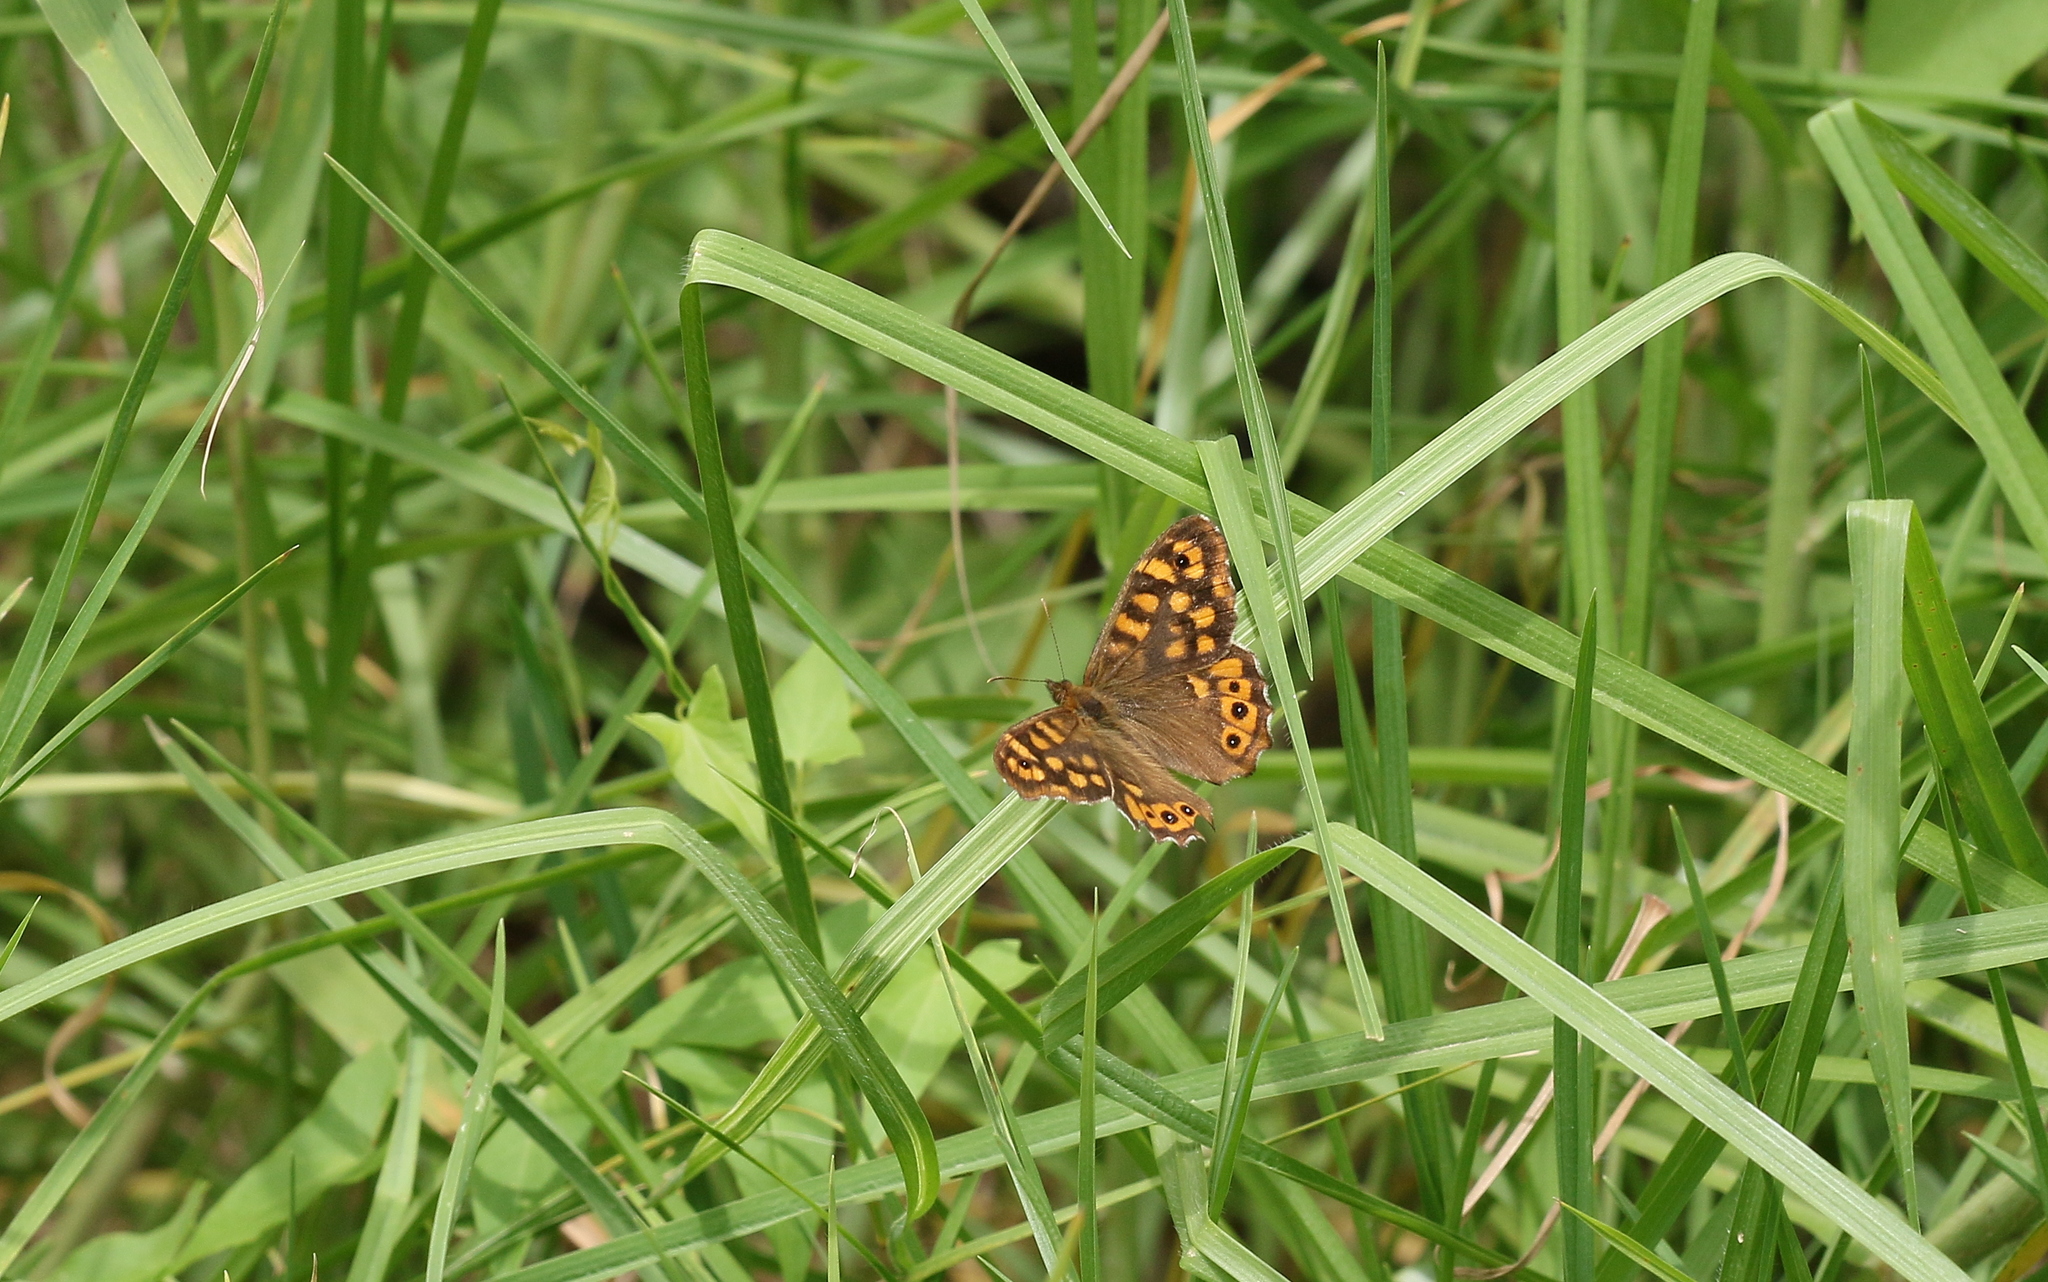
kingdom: Animalia
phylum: Arthropoda
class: Insecta
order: Lepidoptera
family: Nymphalidae
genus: Pararge
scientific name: Pararge aegeria
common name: Speckled wood
